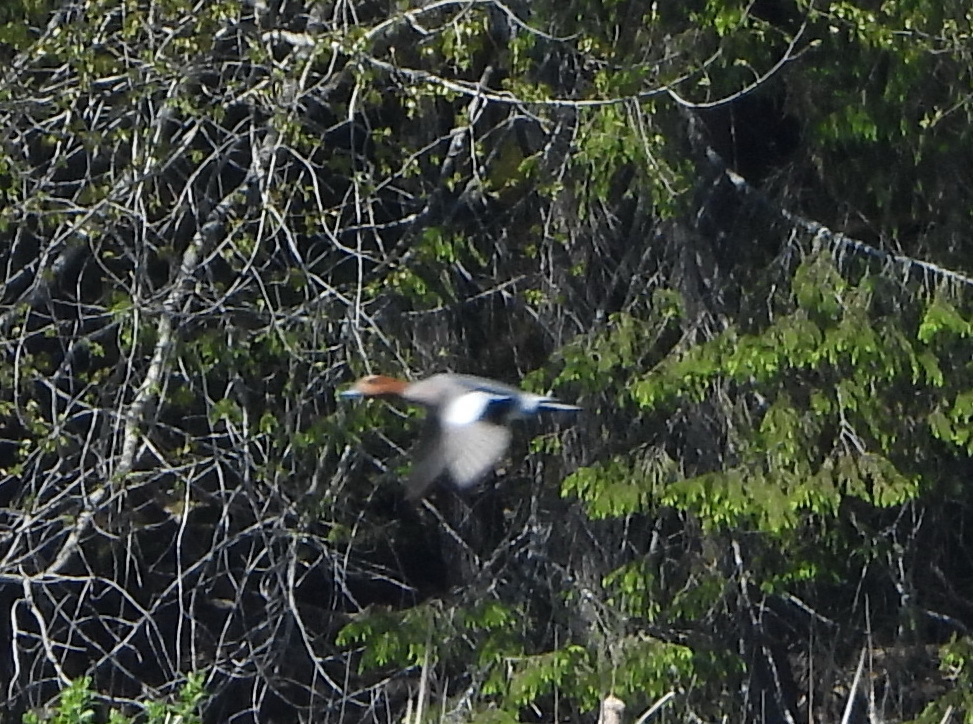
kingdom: Animalia
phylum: Chordata
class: Aves
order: Anseriformes
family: Anatidae
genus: Mareca
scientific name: Mareca penelope
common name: Eurasian wigeon
